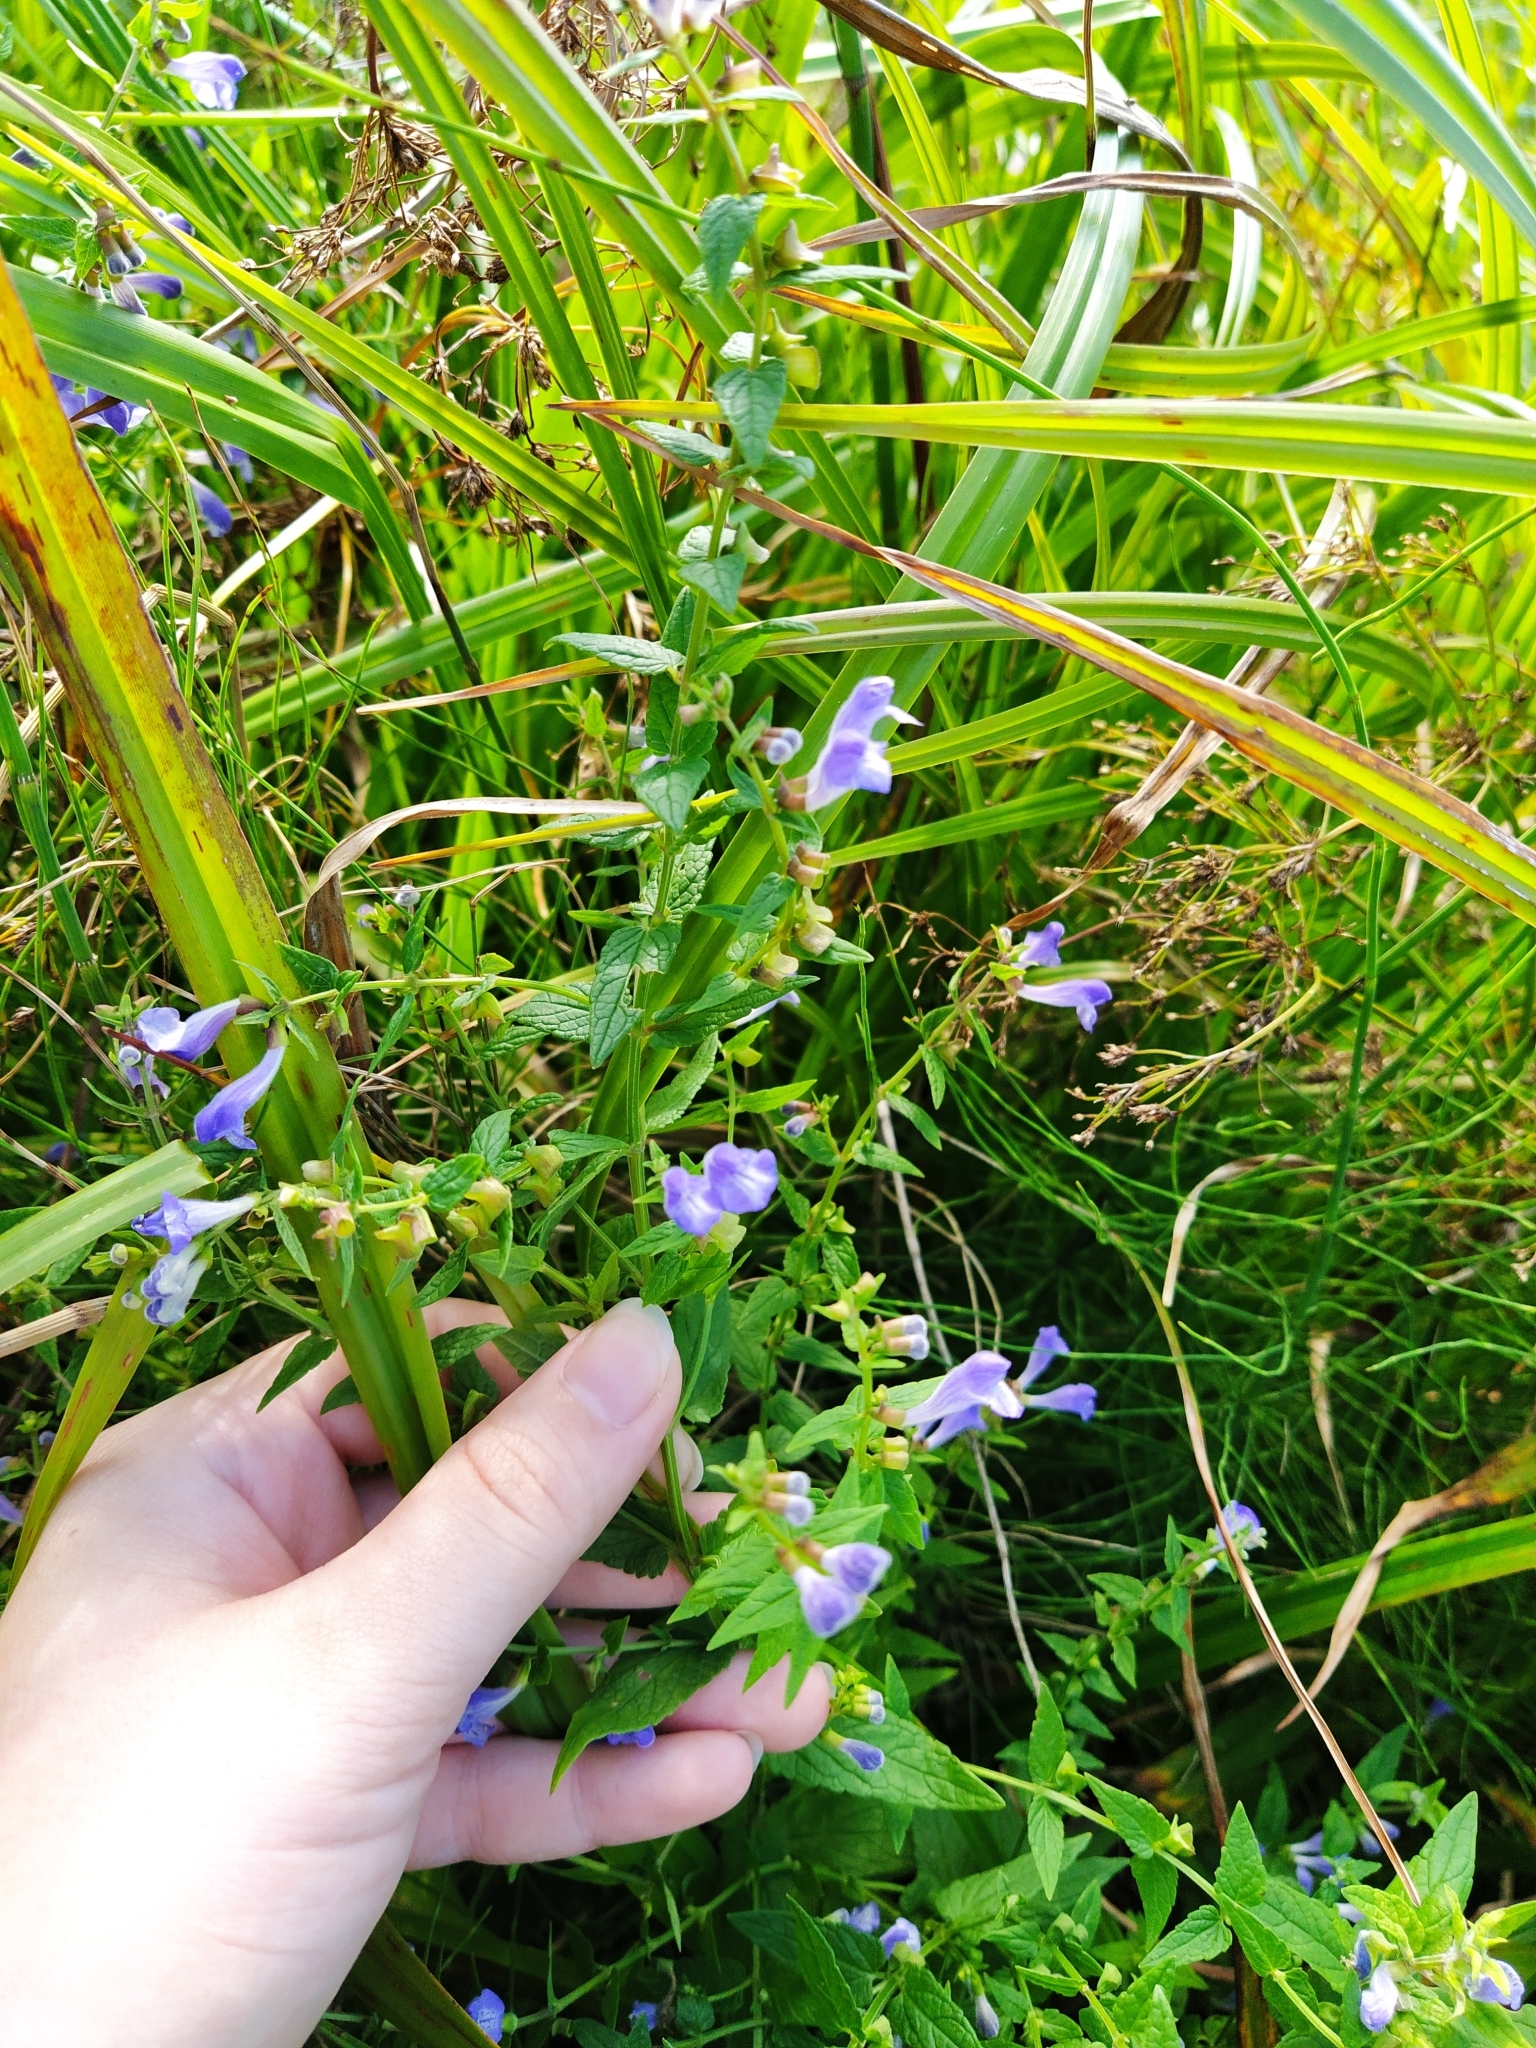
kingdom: Plantae
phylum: Tracheophyta
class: Magnoliopsida
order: Lamiales
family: Lamiaceae
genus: Scutellaria
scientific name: Scutellaria galericulata
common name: Skullcap
